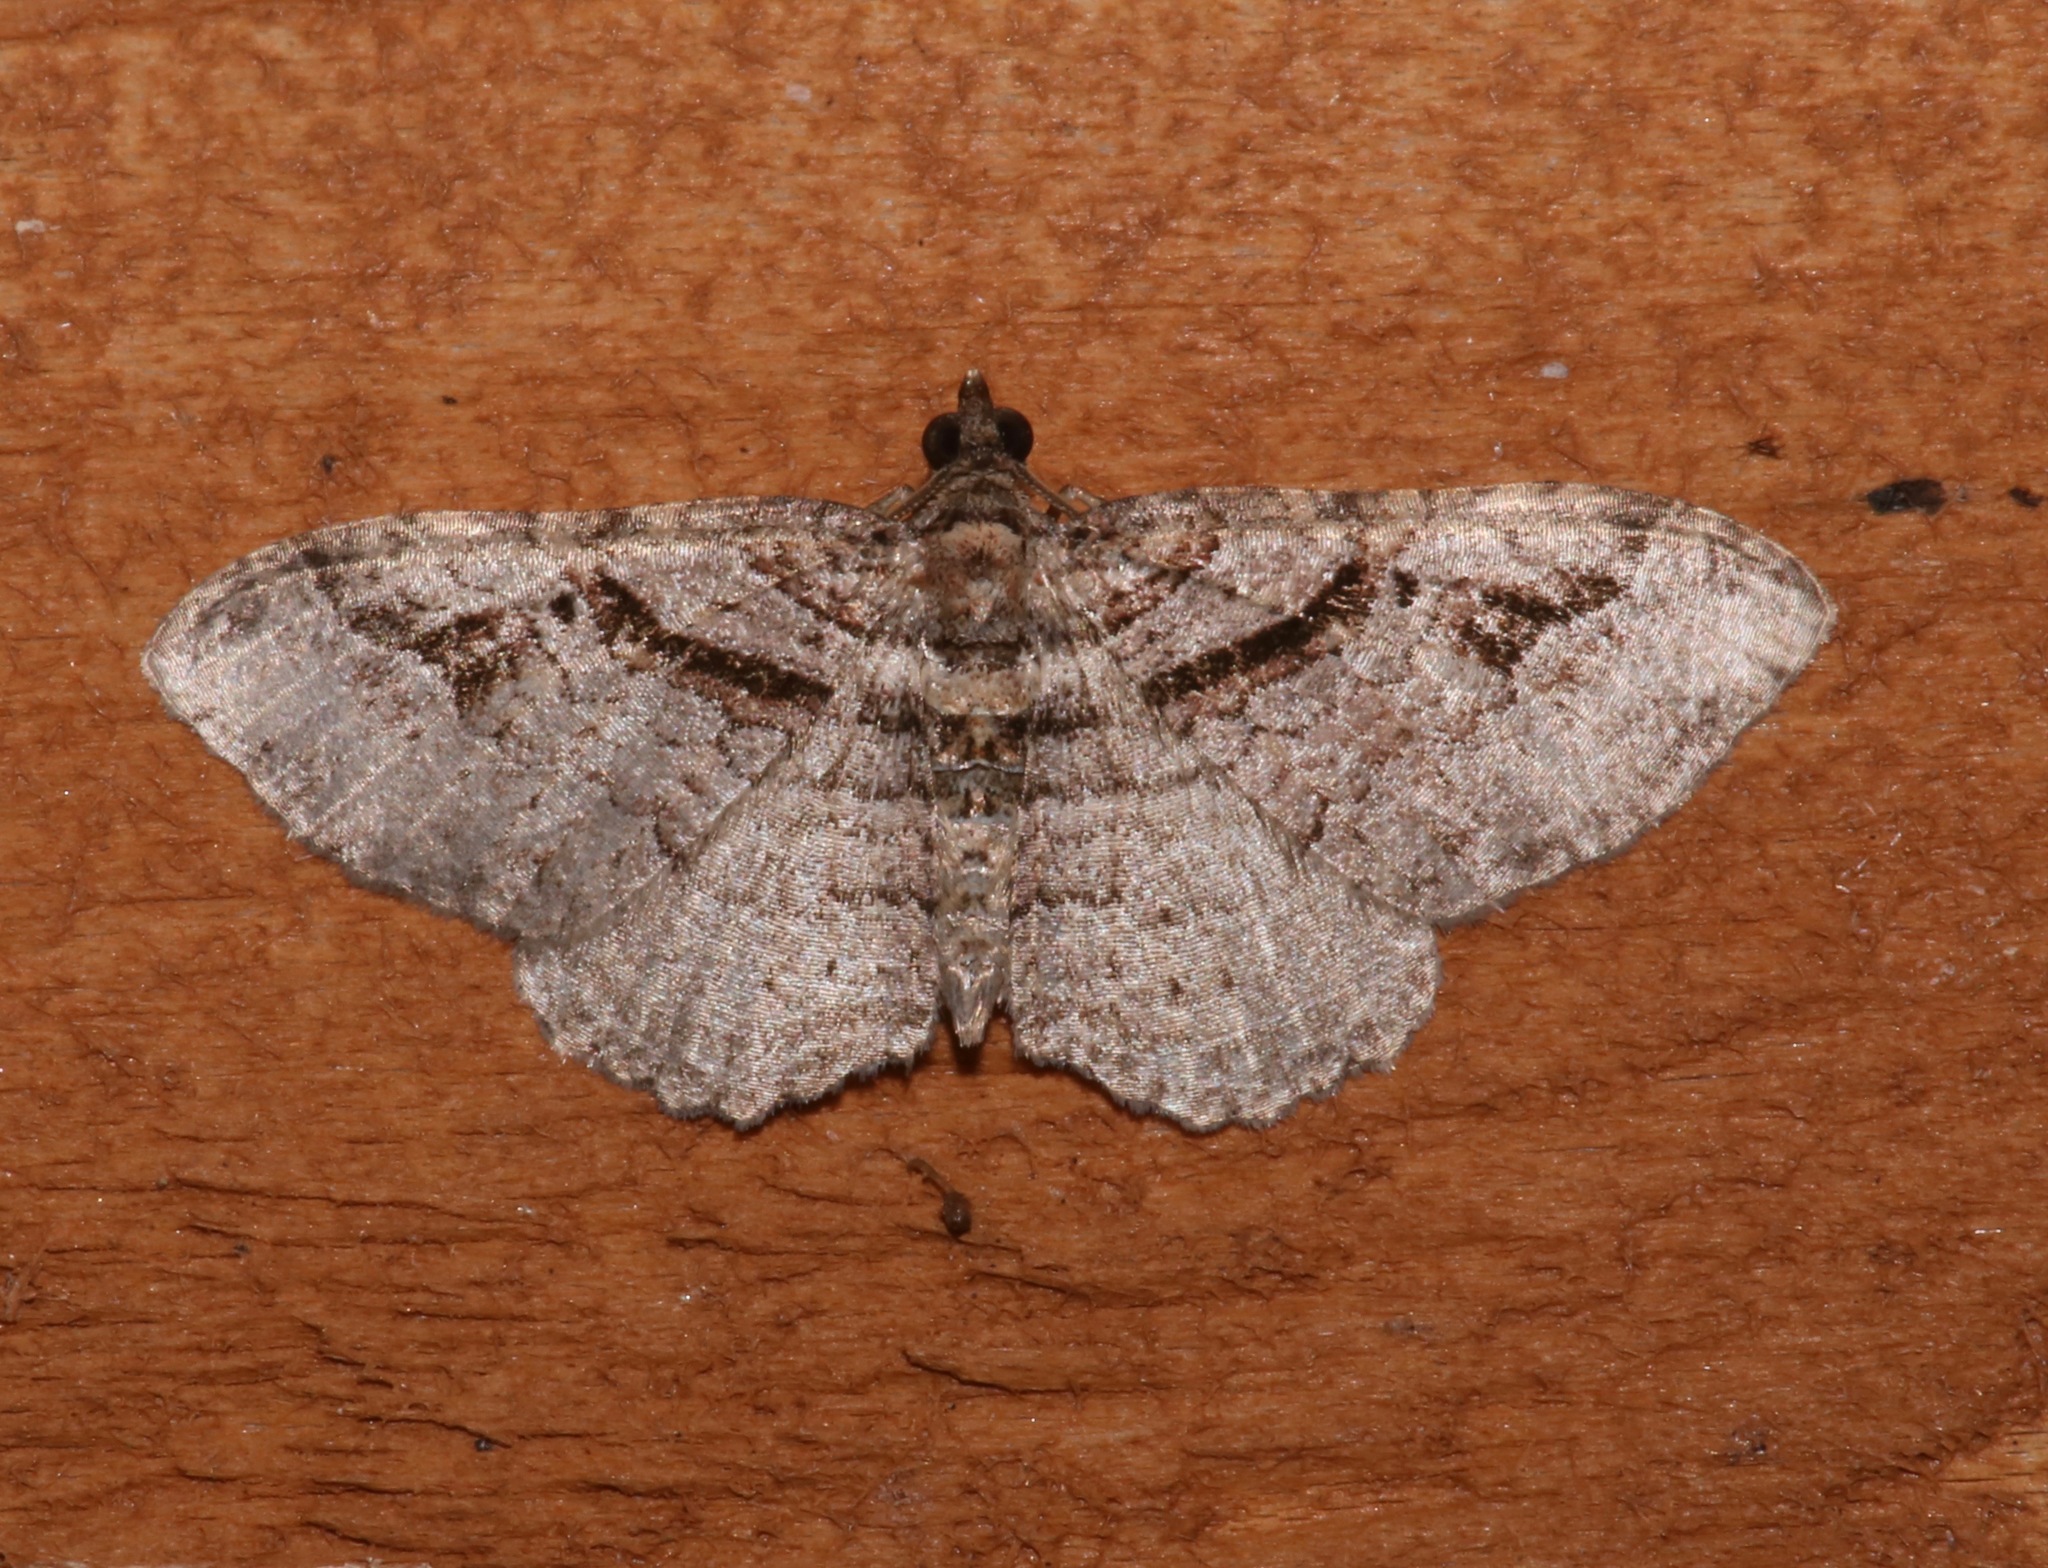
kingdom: Animalia
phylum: Arthropoda
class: Insecta
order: Lepidoptera
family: Geometridae
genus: Costaconvexa
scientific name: Costaconvexa centrostrigaria
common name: Bent-line carpet
